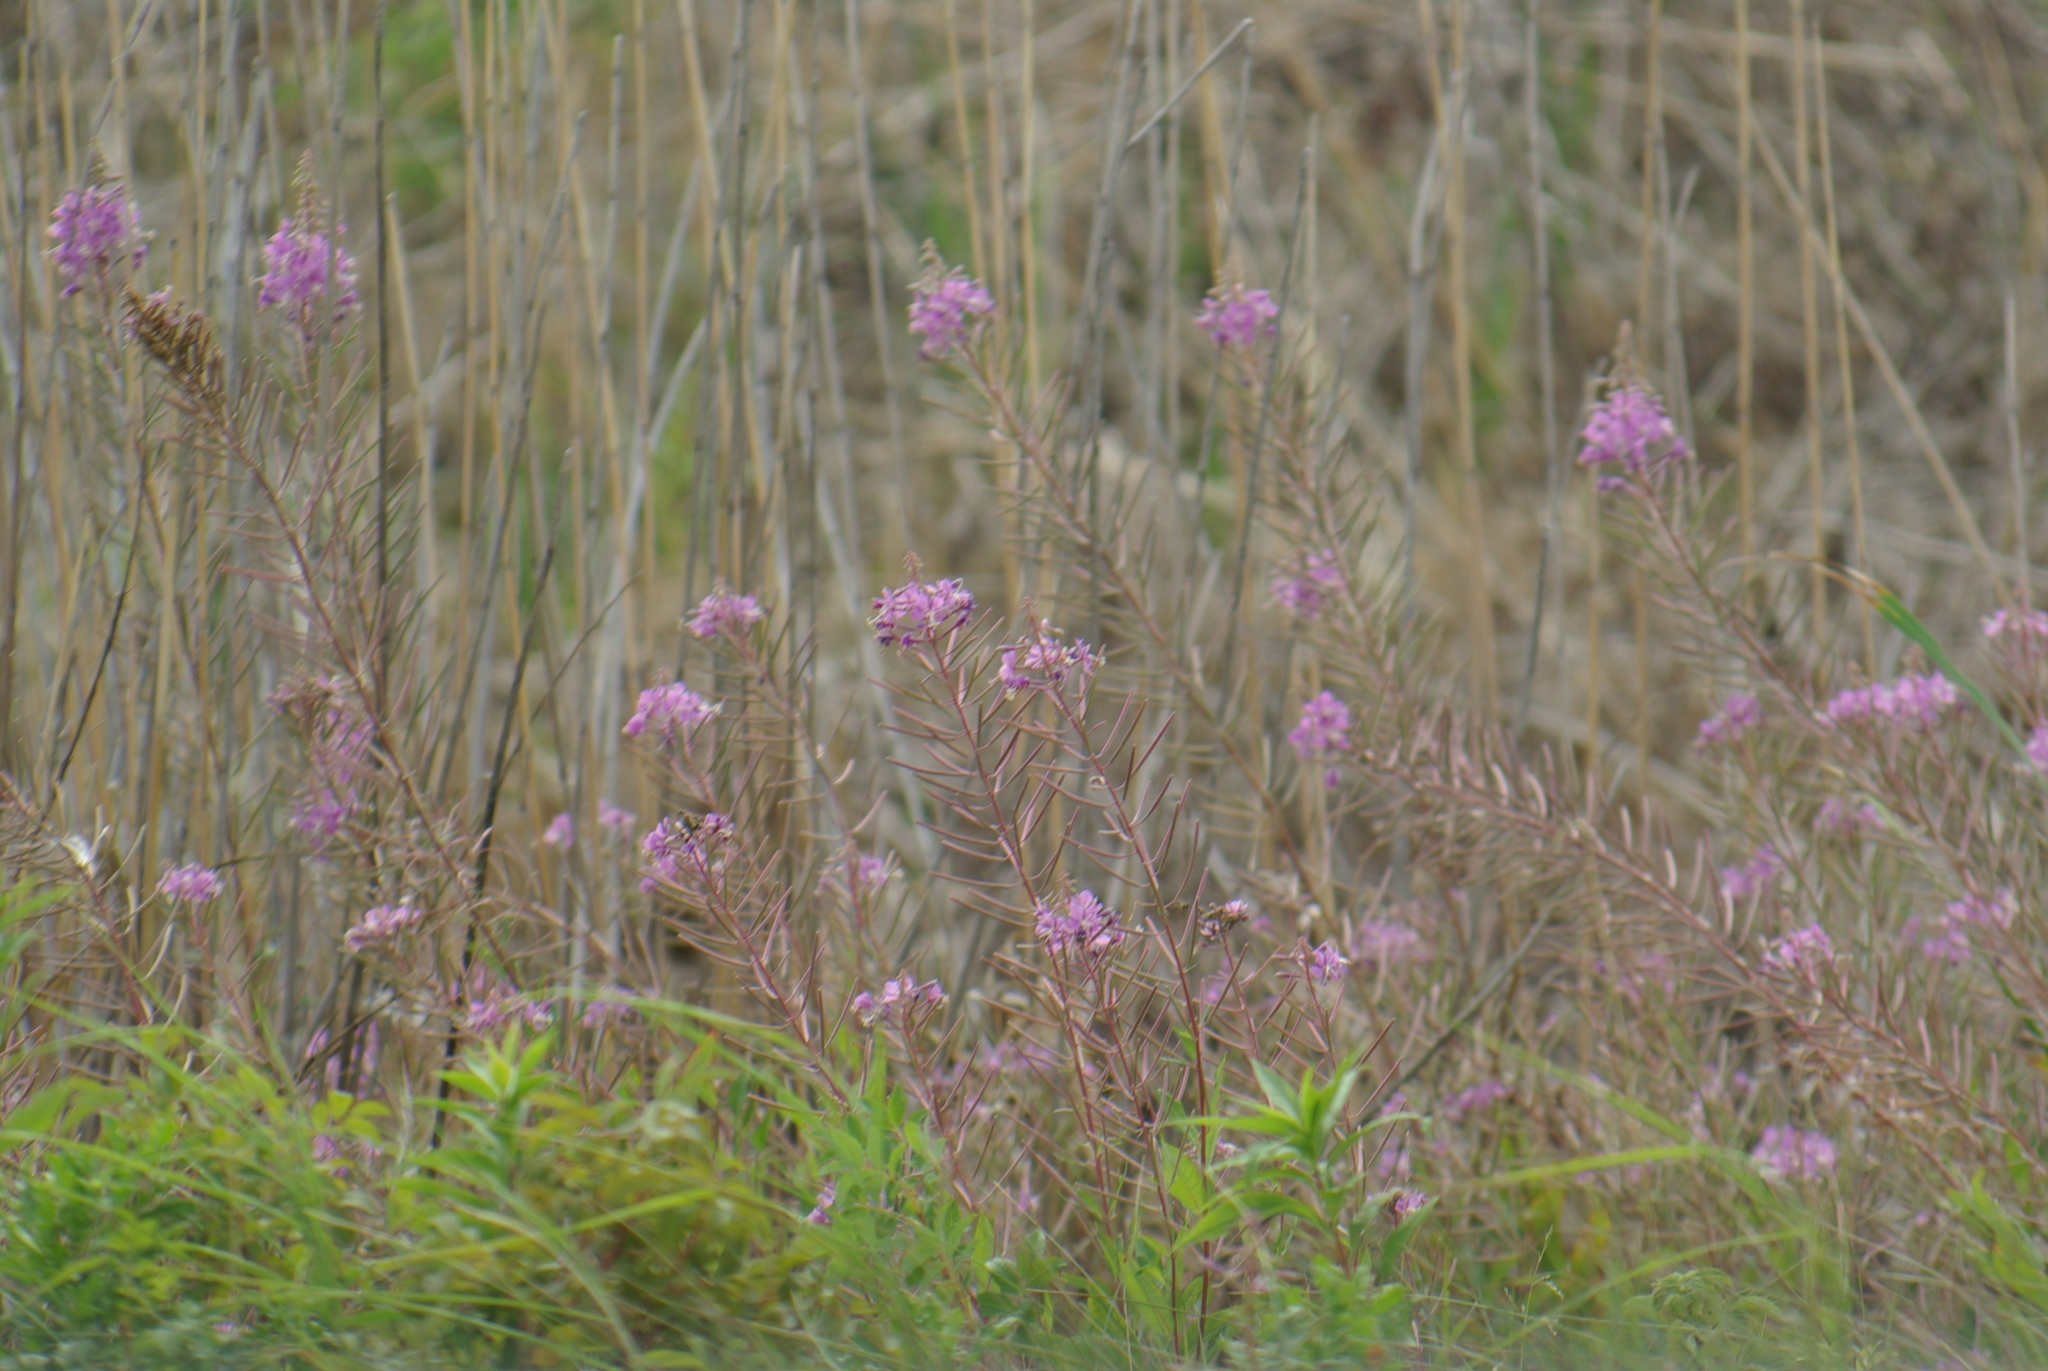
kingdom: Plantae
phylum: Tracheophyta
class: Magnoliopsida
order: Myrtales
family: Onagraceae
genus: Chamaenerion
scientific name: Chamaenerion angustifolium
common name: Fireweed
